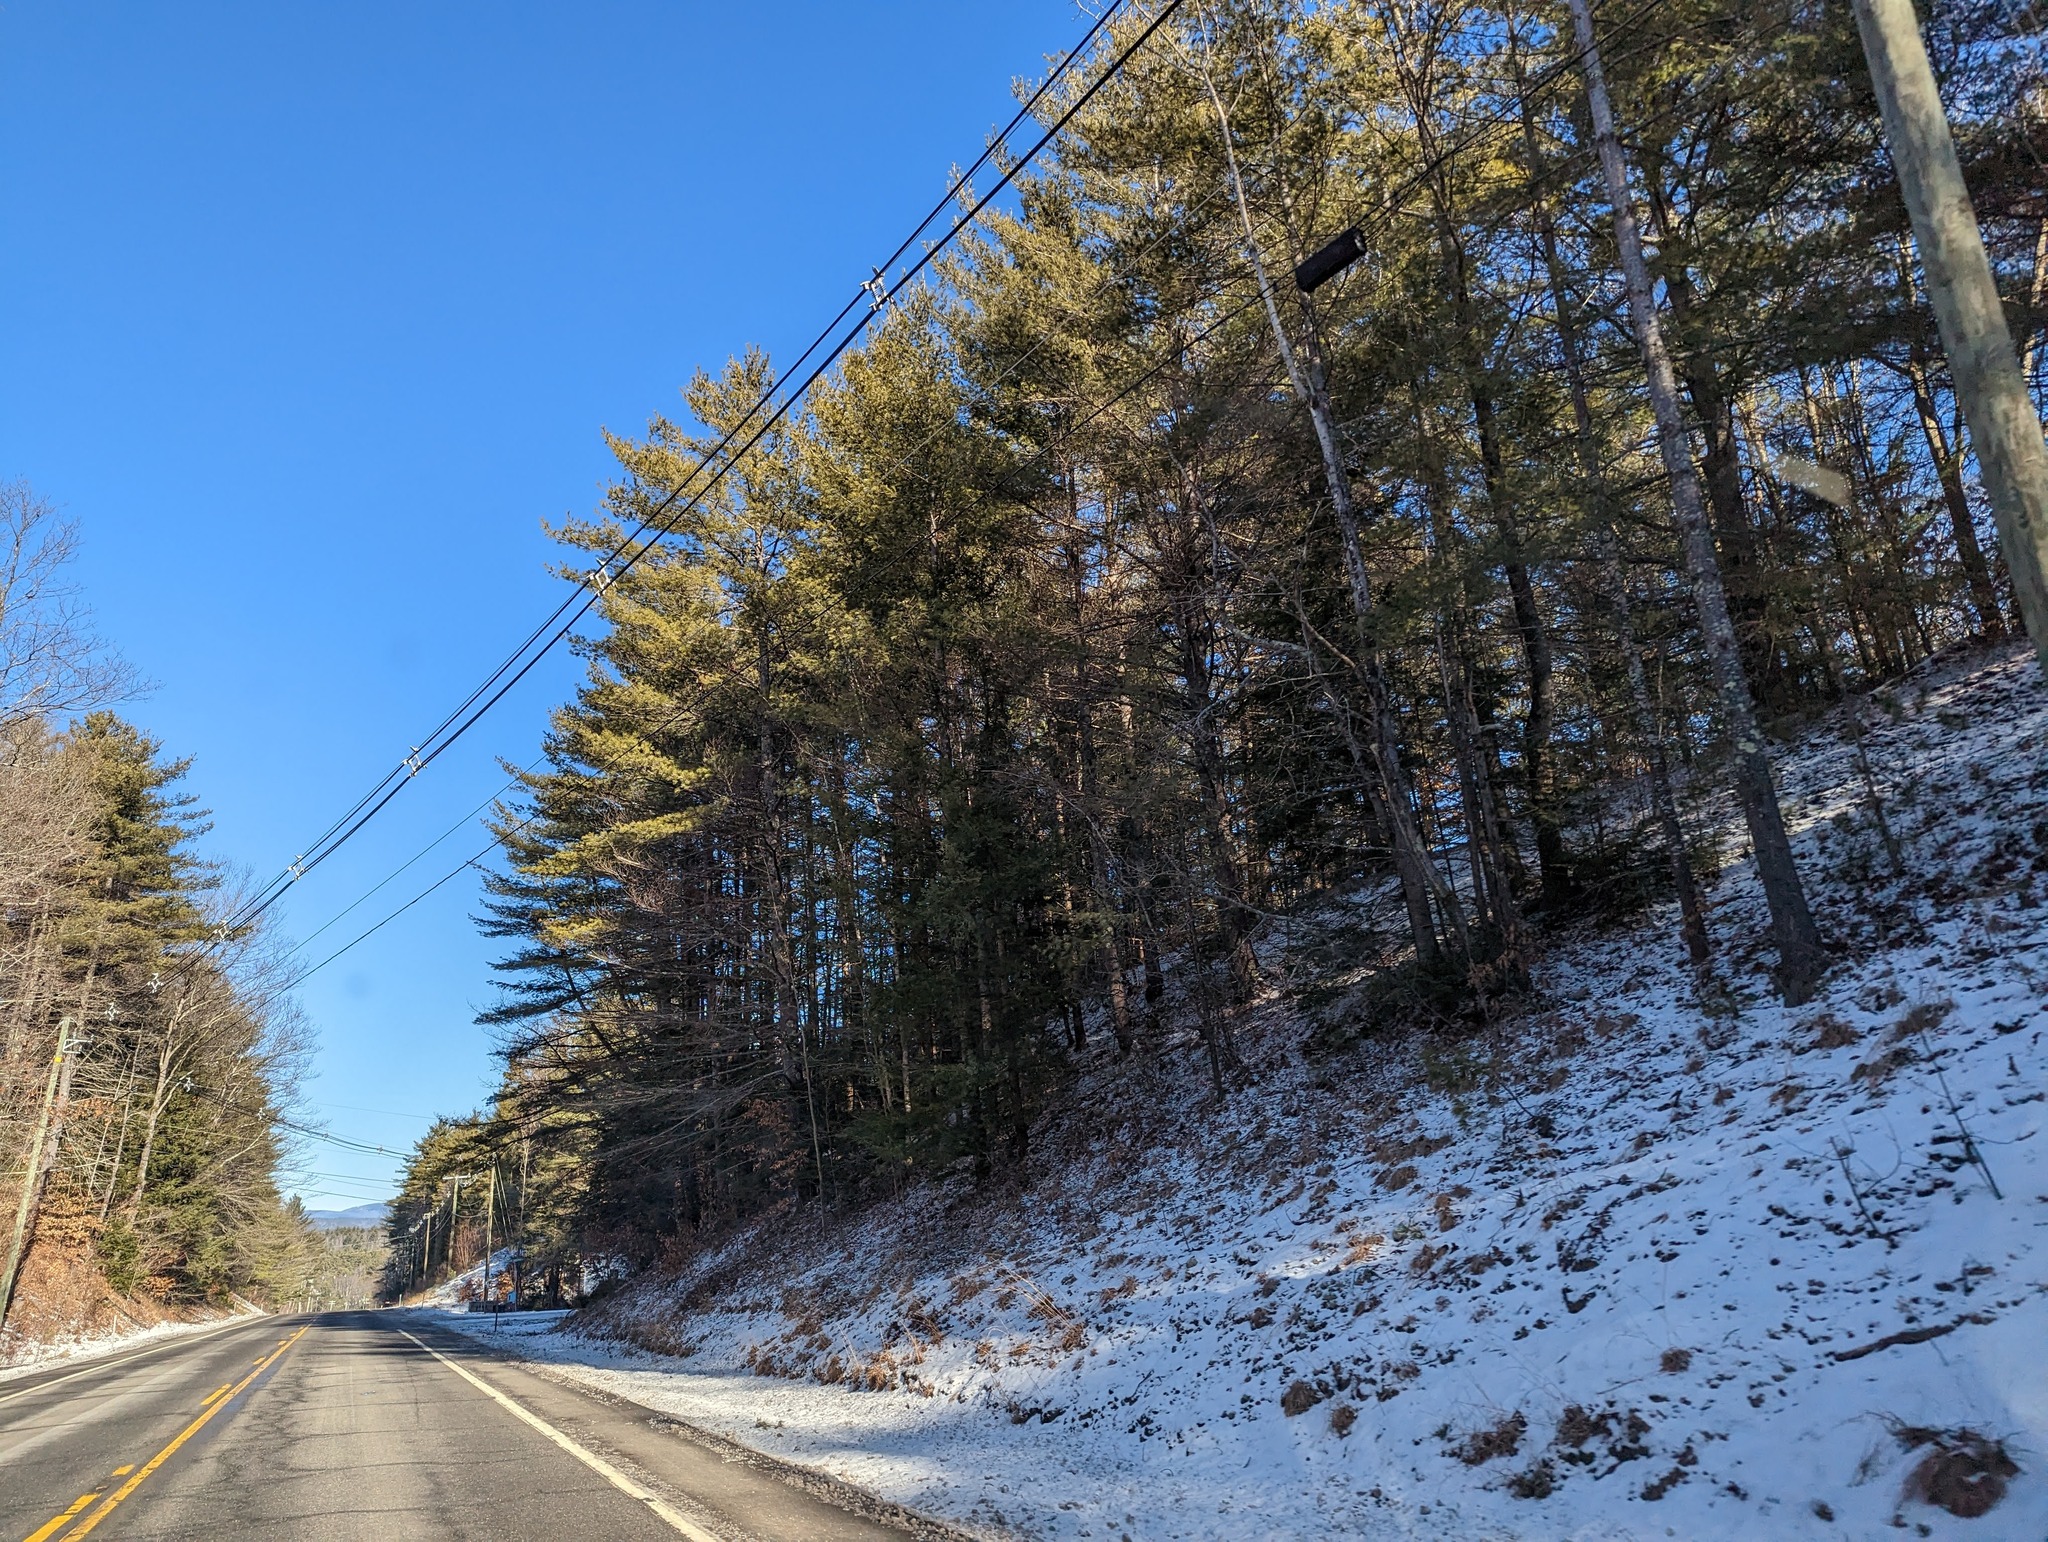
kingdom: Plantae
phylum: Tracheophyta
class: Pinopsida
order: Pinales
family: Pinaceae
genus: Pinus
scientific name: Pinus strobus
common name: Weymouth pine
